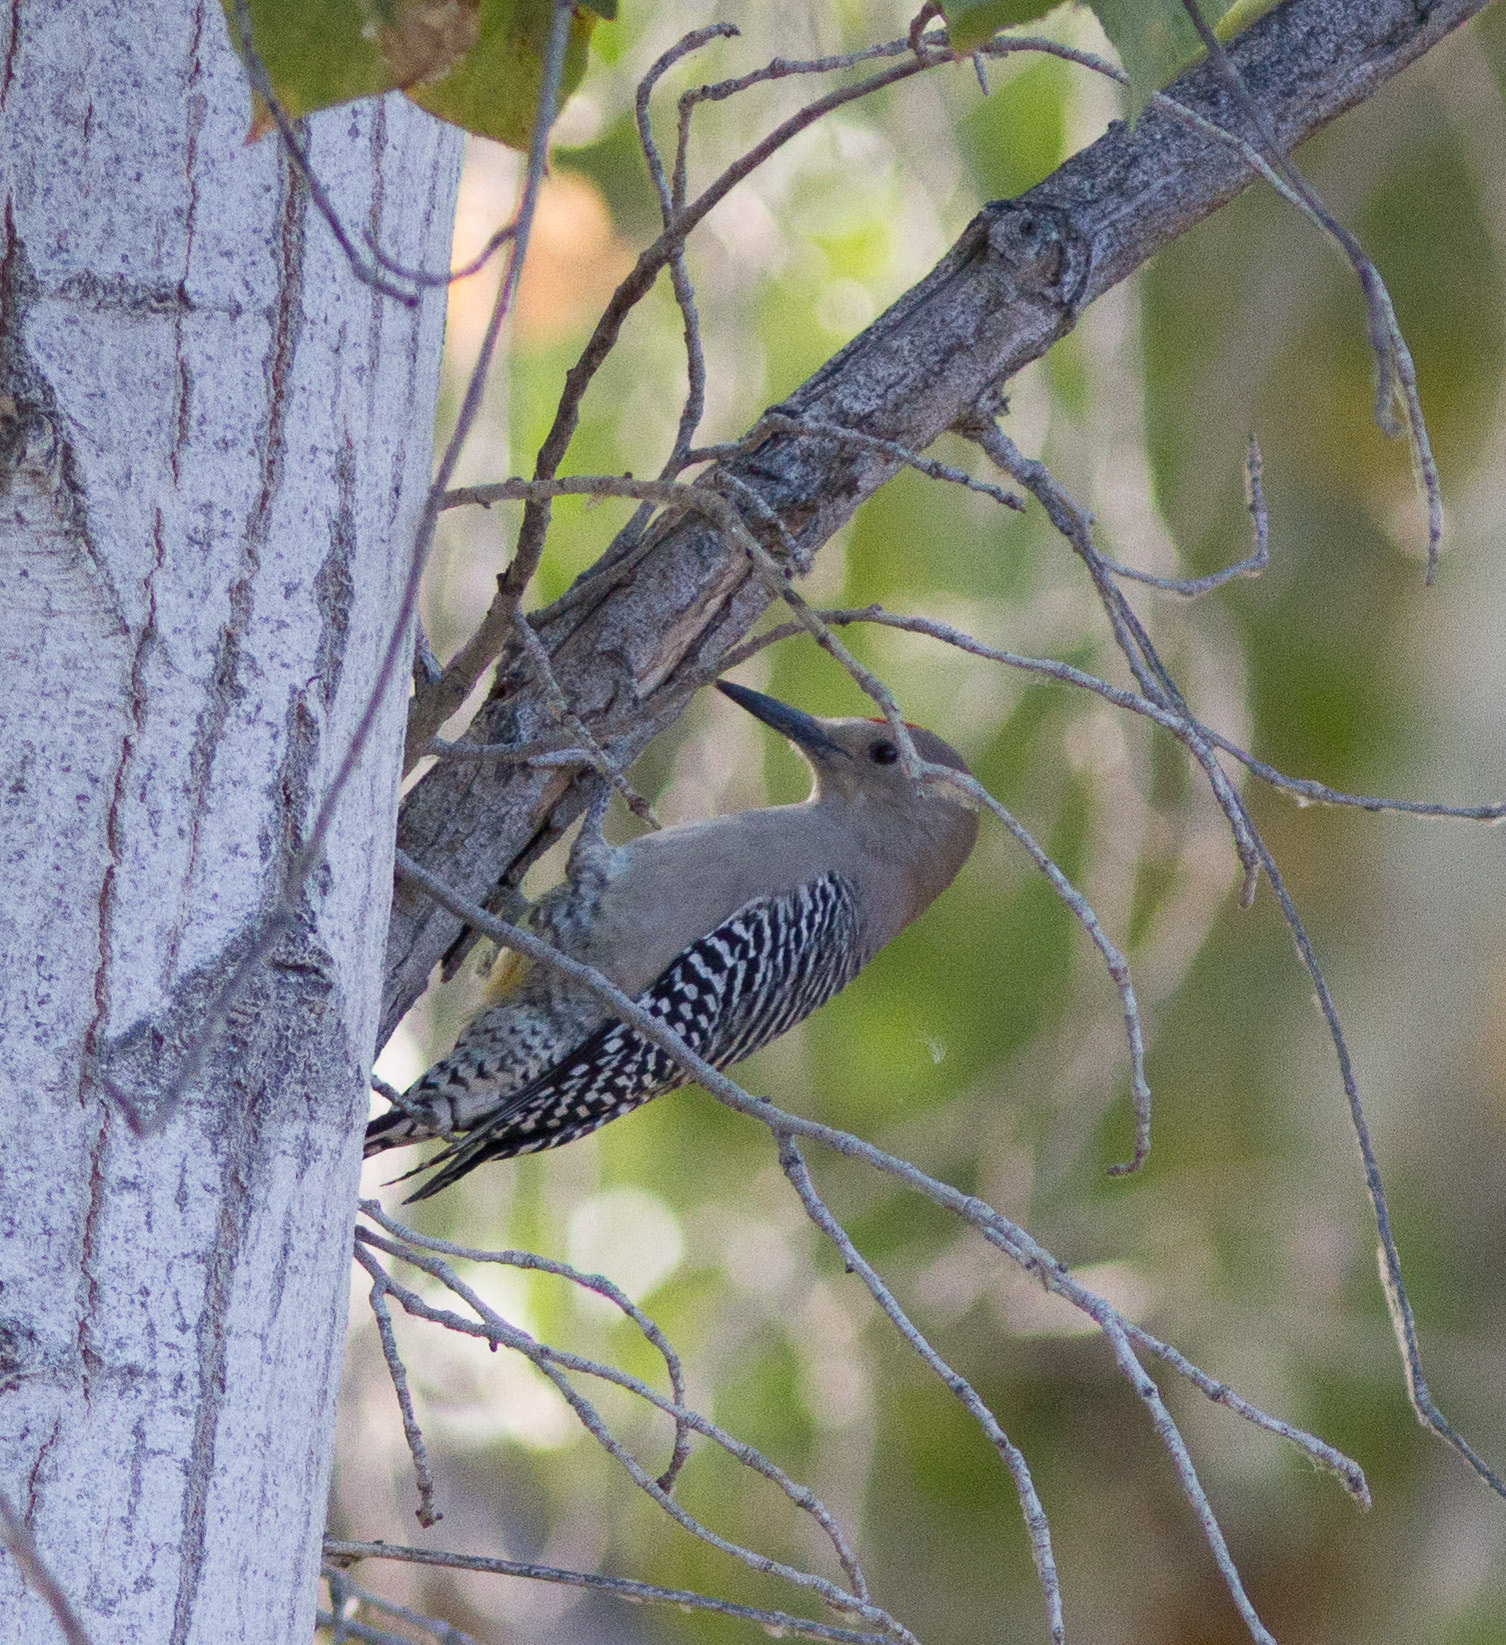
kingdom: Animalia
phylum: Chordata
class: Aves
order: Piciformes
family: Picidae
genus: Melanerpes
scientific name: Melanerpes uropygialis
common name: Gila woodpecker
